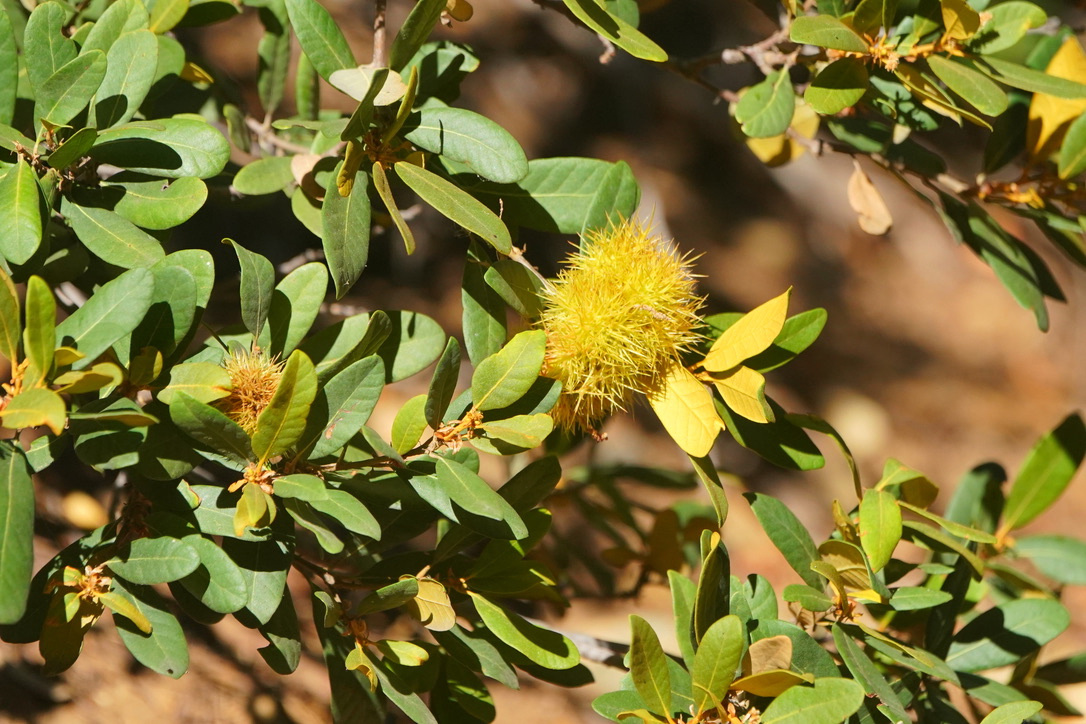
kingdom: Plantae
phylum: Tracheophyta
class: Magnoliopsida
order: Fagales
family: Fagaceae
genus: Chrysolepis
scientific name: Chrysolepis sempervirens
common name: Bush chinquapin
